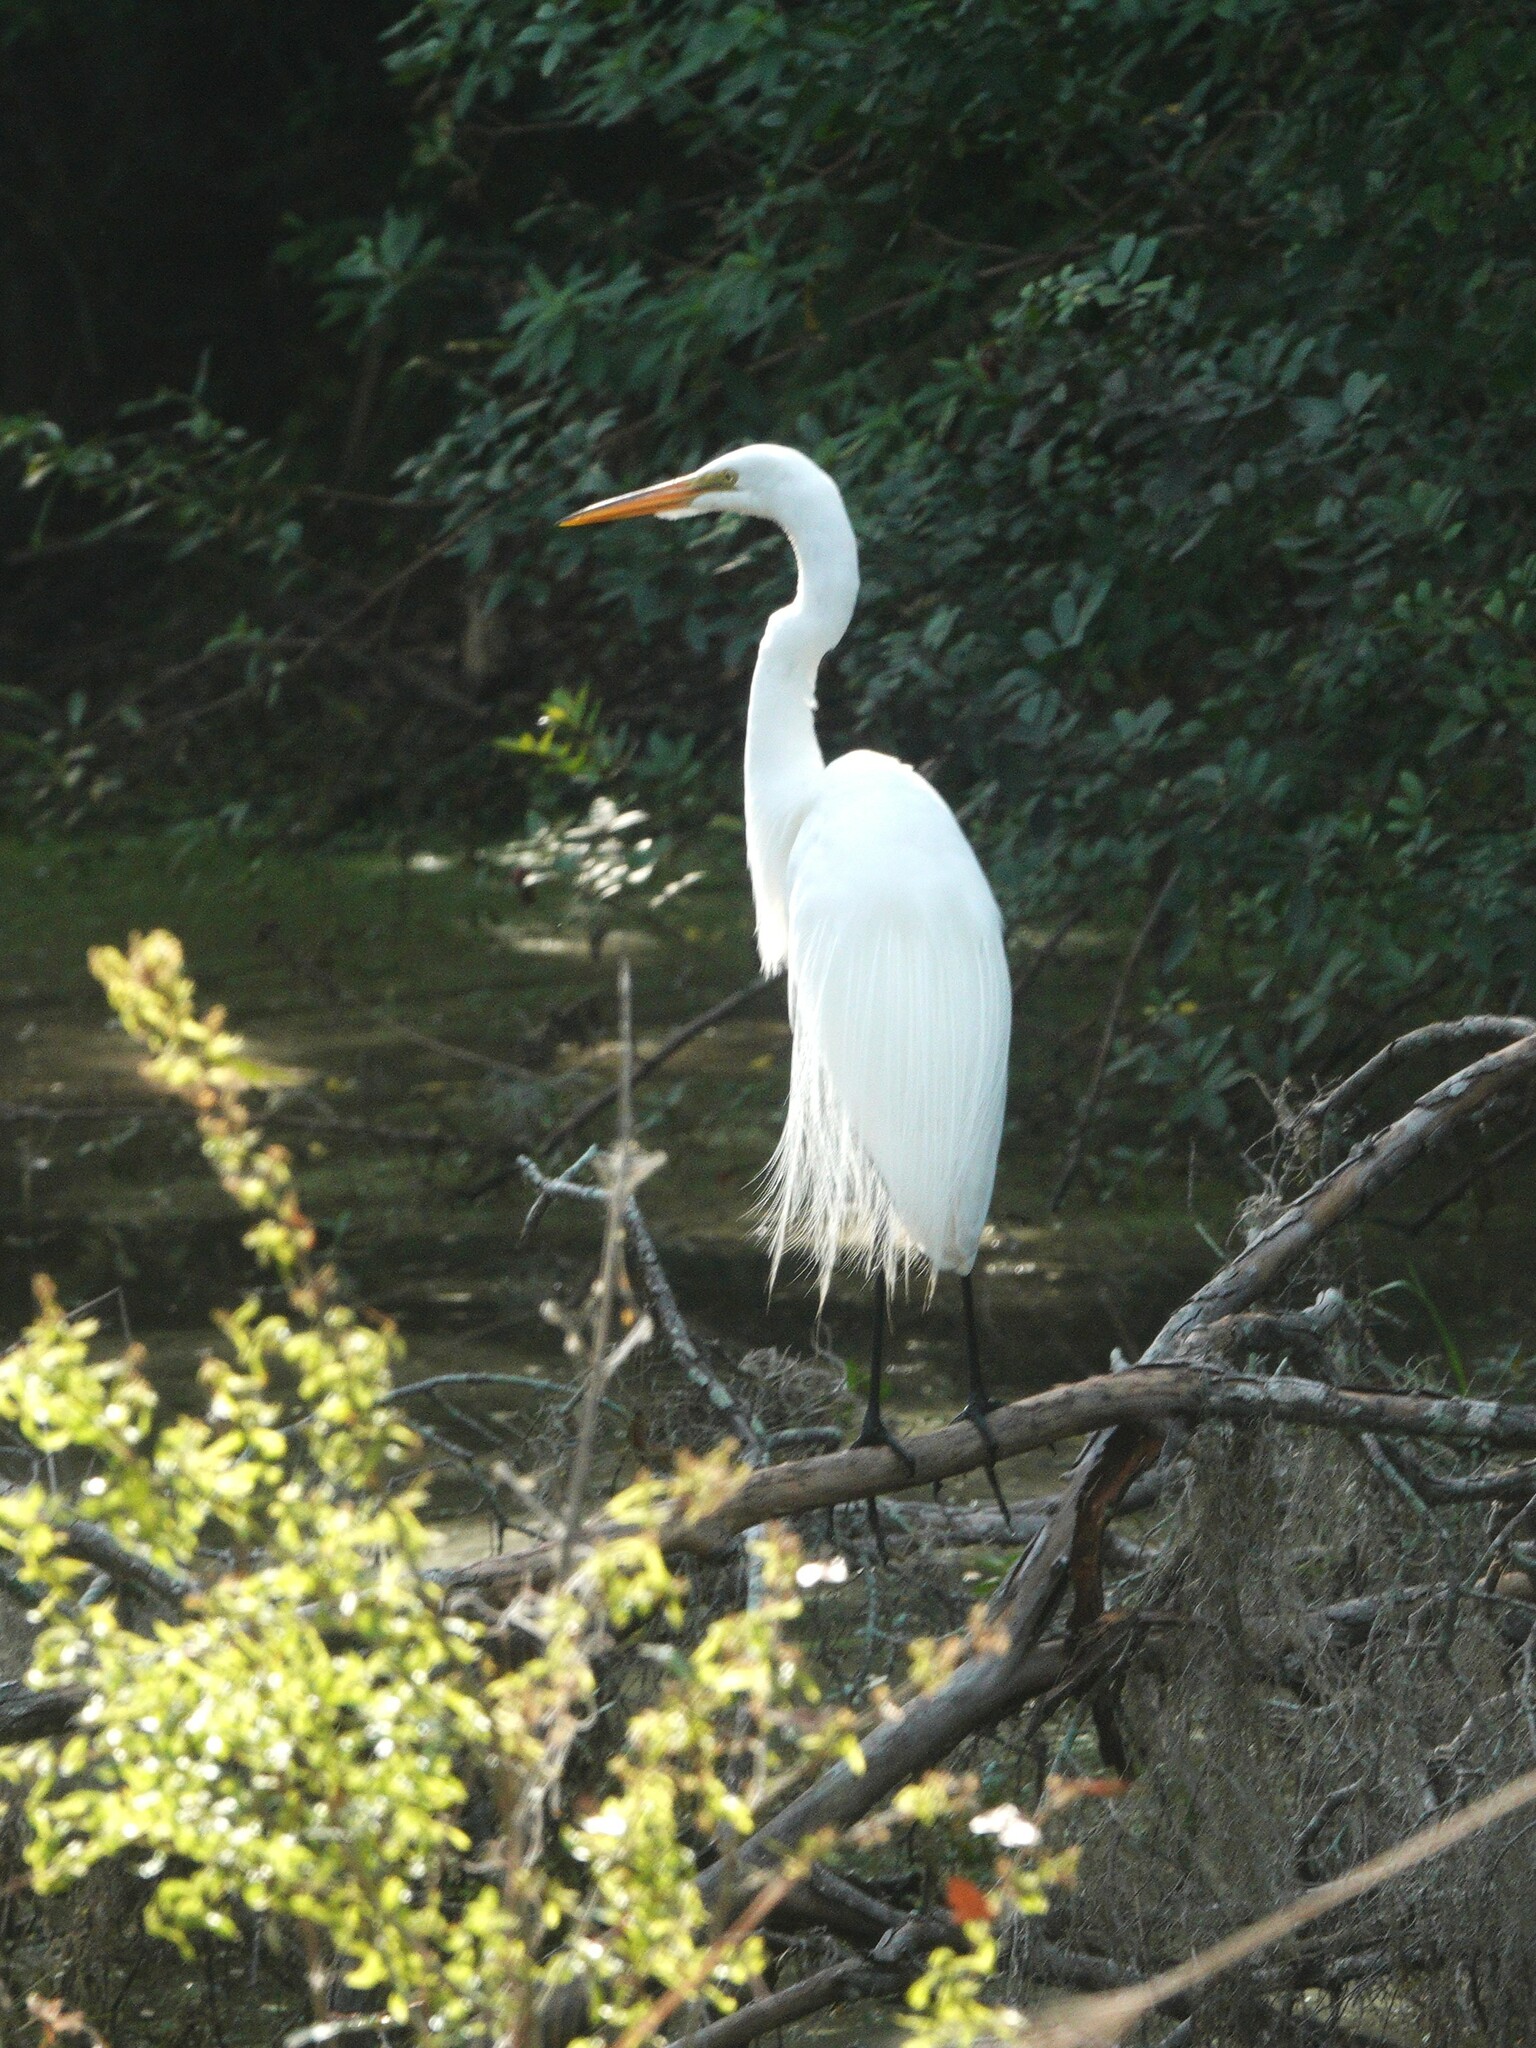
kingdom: Animalia
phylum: Chordata
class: Aves
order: Pelecaniformes
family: Ardeidae
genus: Ardea
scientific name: Ardea alba
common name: Great egret
